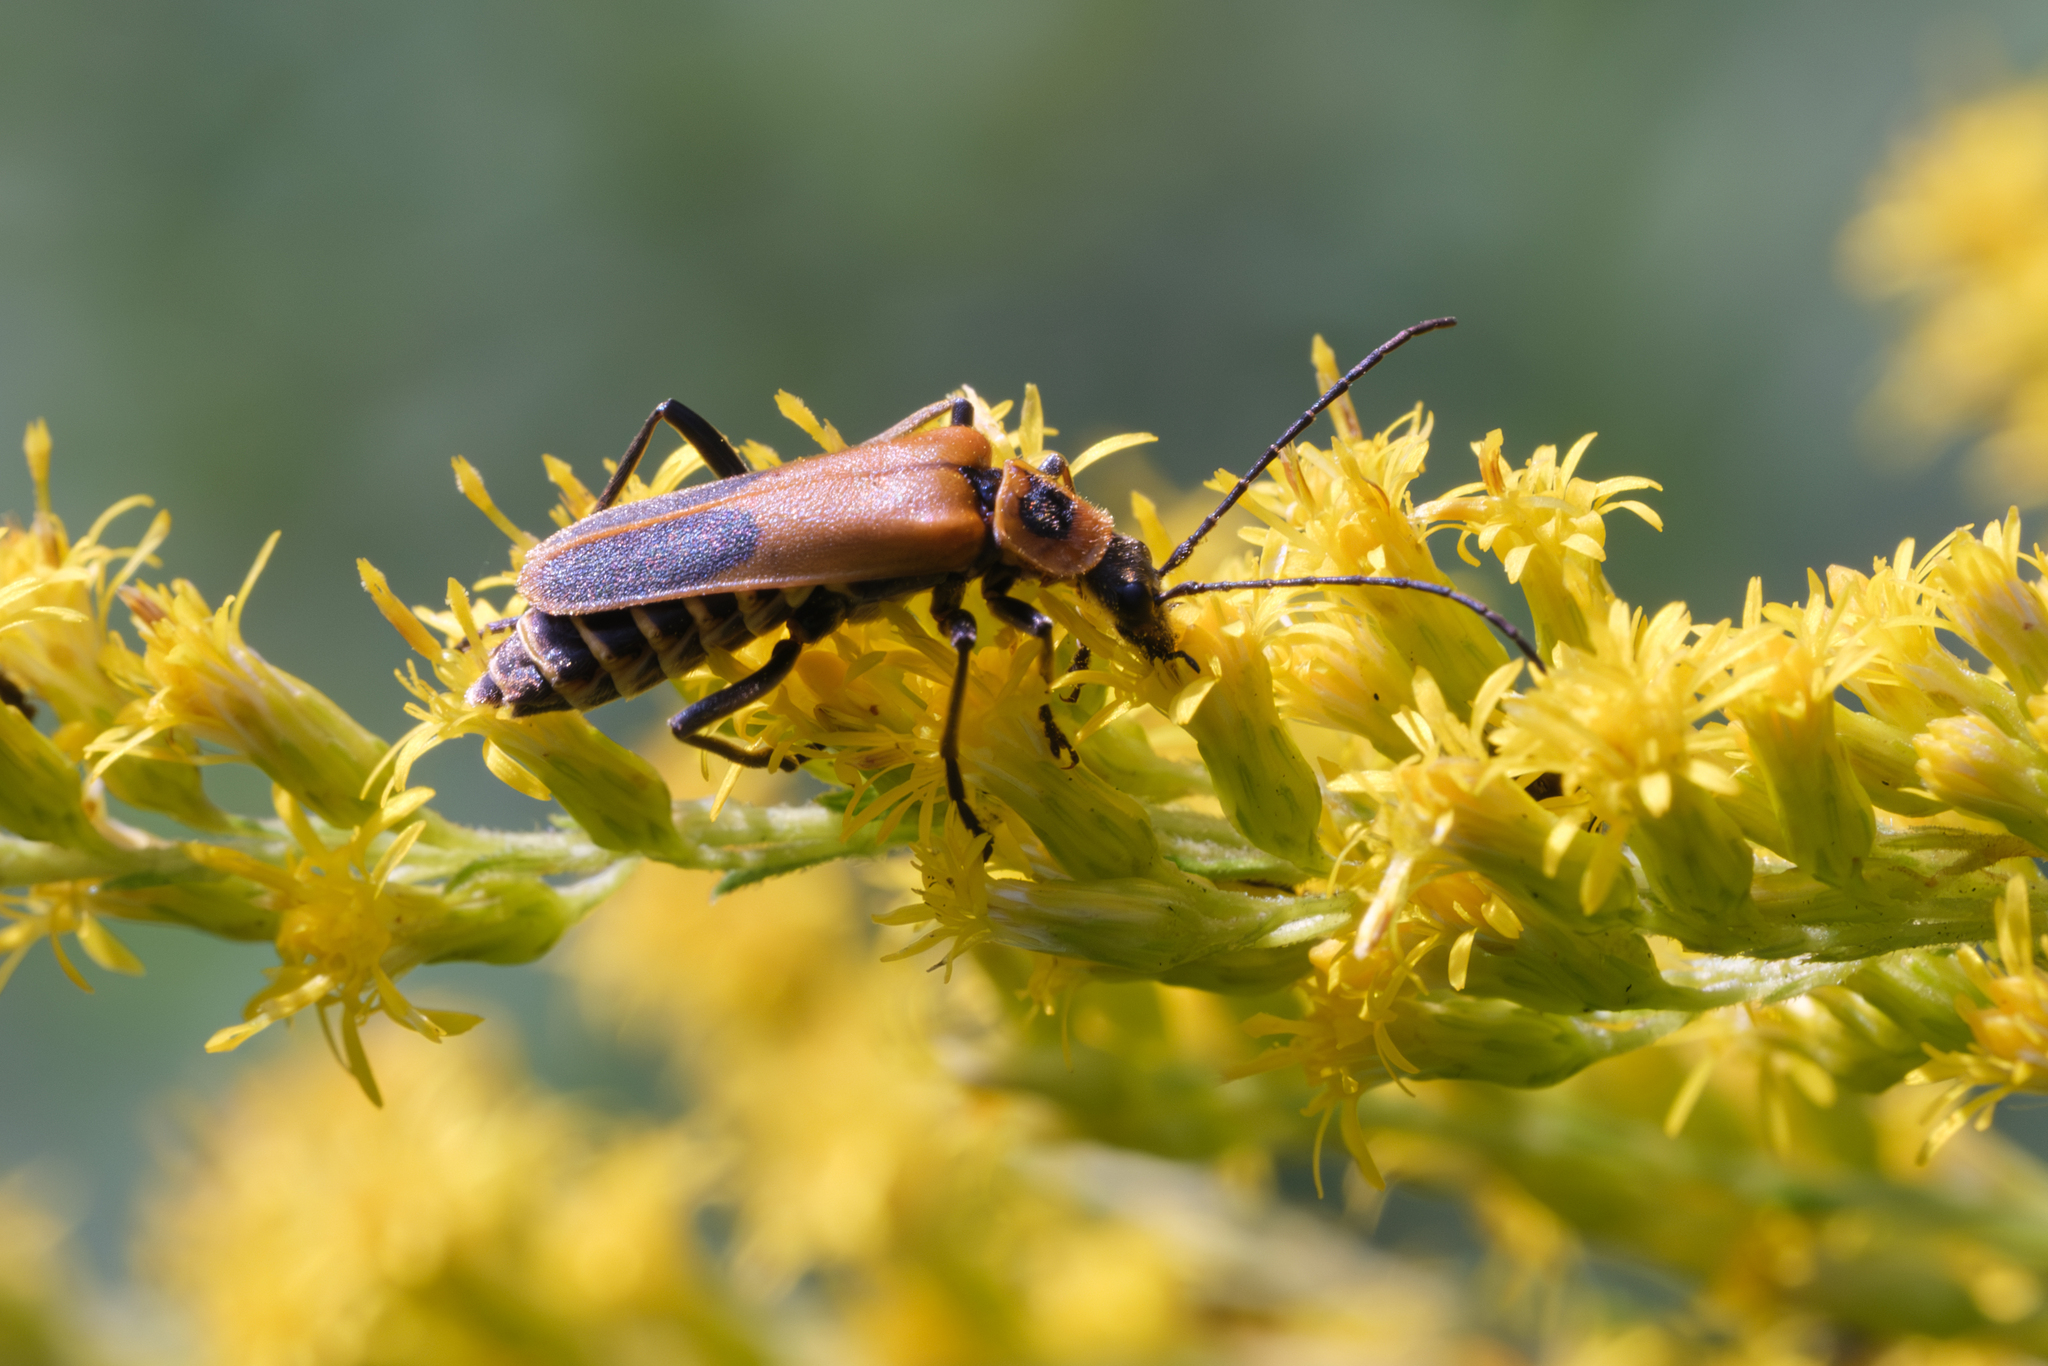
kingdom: Animalia
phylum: Arthropoda
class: Insecta
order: Coleoptera
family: Cantharidae
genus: Chauliognathus
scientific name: Chauliognathus pensylvanicus
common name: Goldenrod soldier beetle
